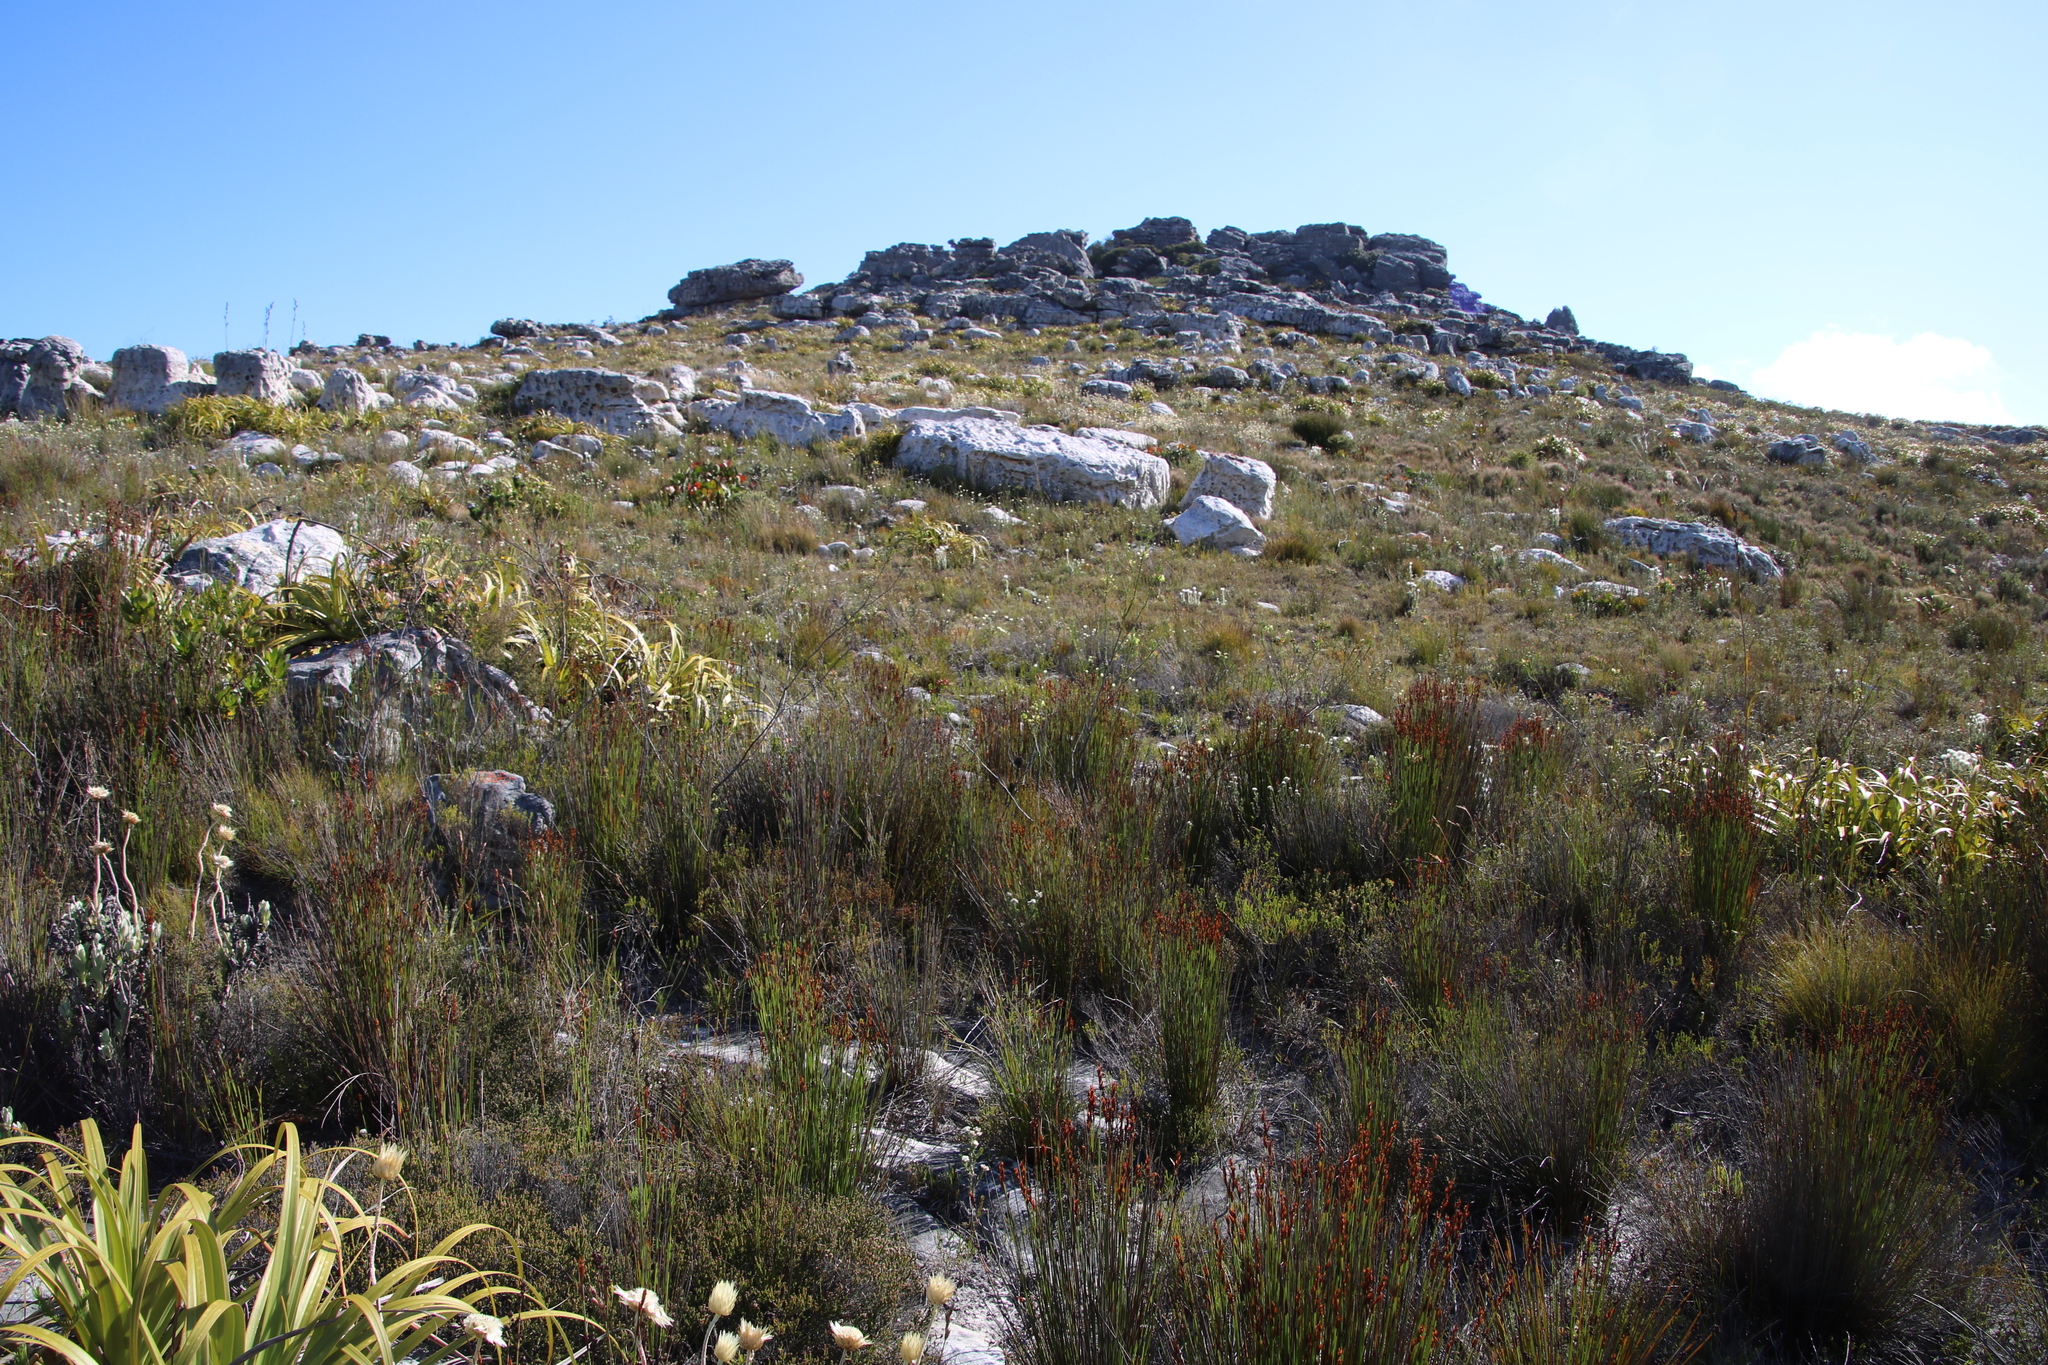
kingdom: Plantae
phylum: Tracheophyta
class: Magnoliopsida
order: Ericales
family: Ericaceae
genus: Erica
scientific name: Erica urna-viridis
